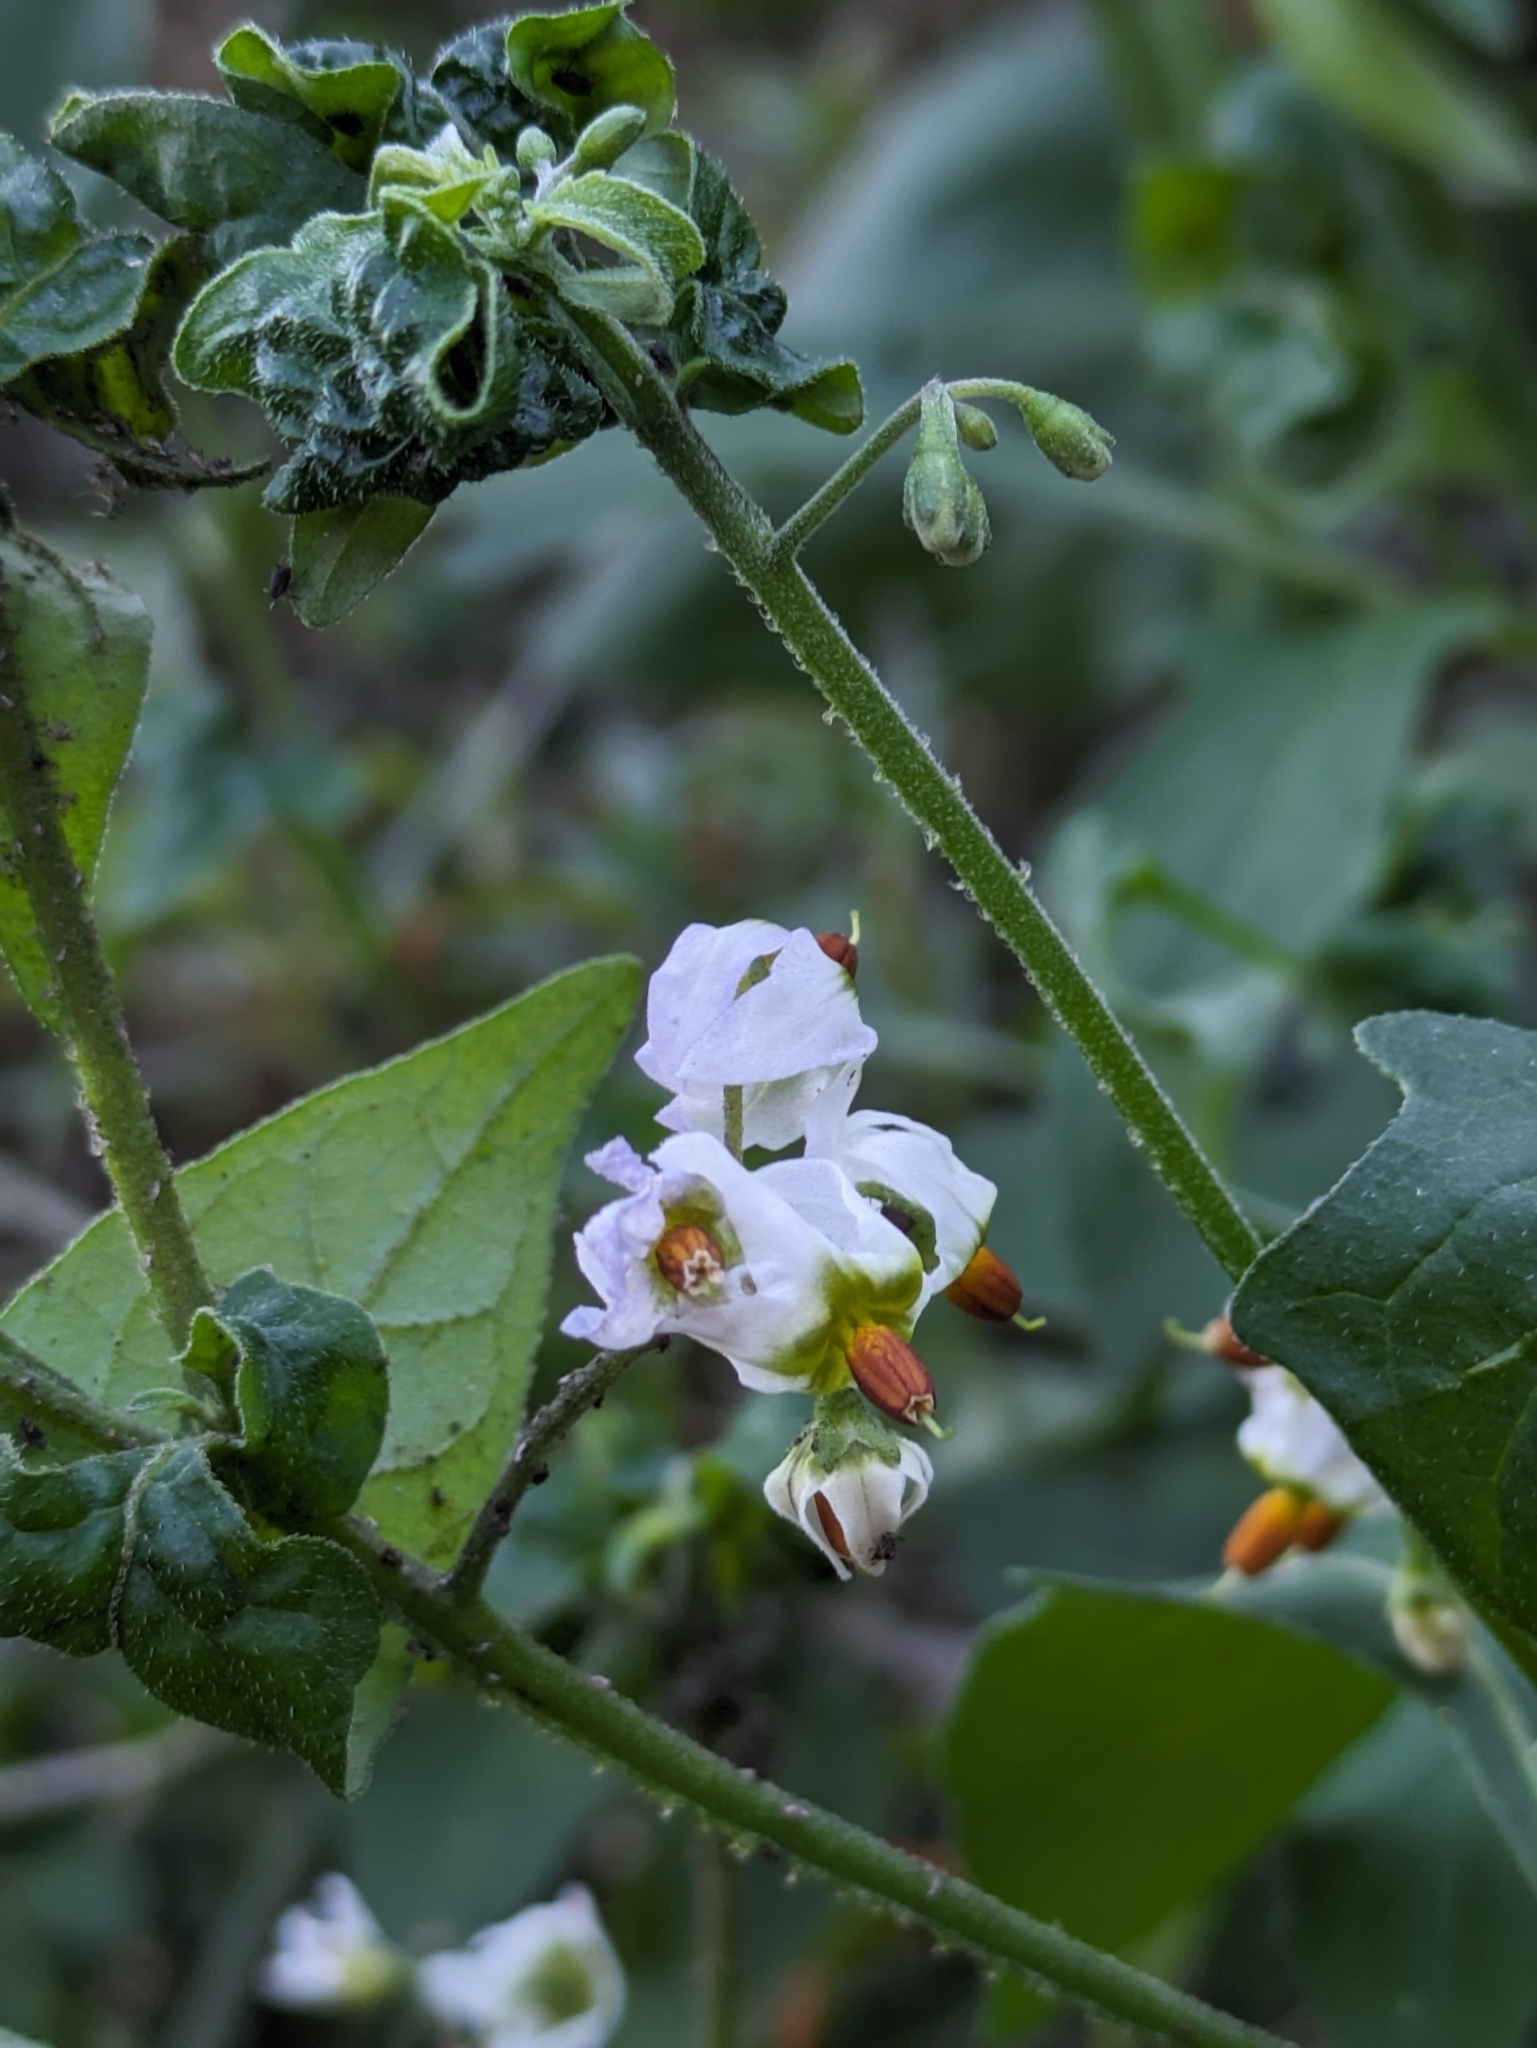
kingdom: Plantae
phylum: Tracheophyta
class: Magnoliopsida
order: Solanales
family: Solanaceae
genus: Solanum
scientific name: Solanum douglasii
